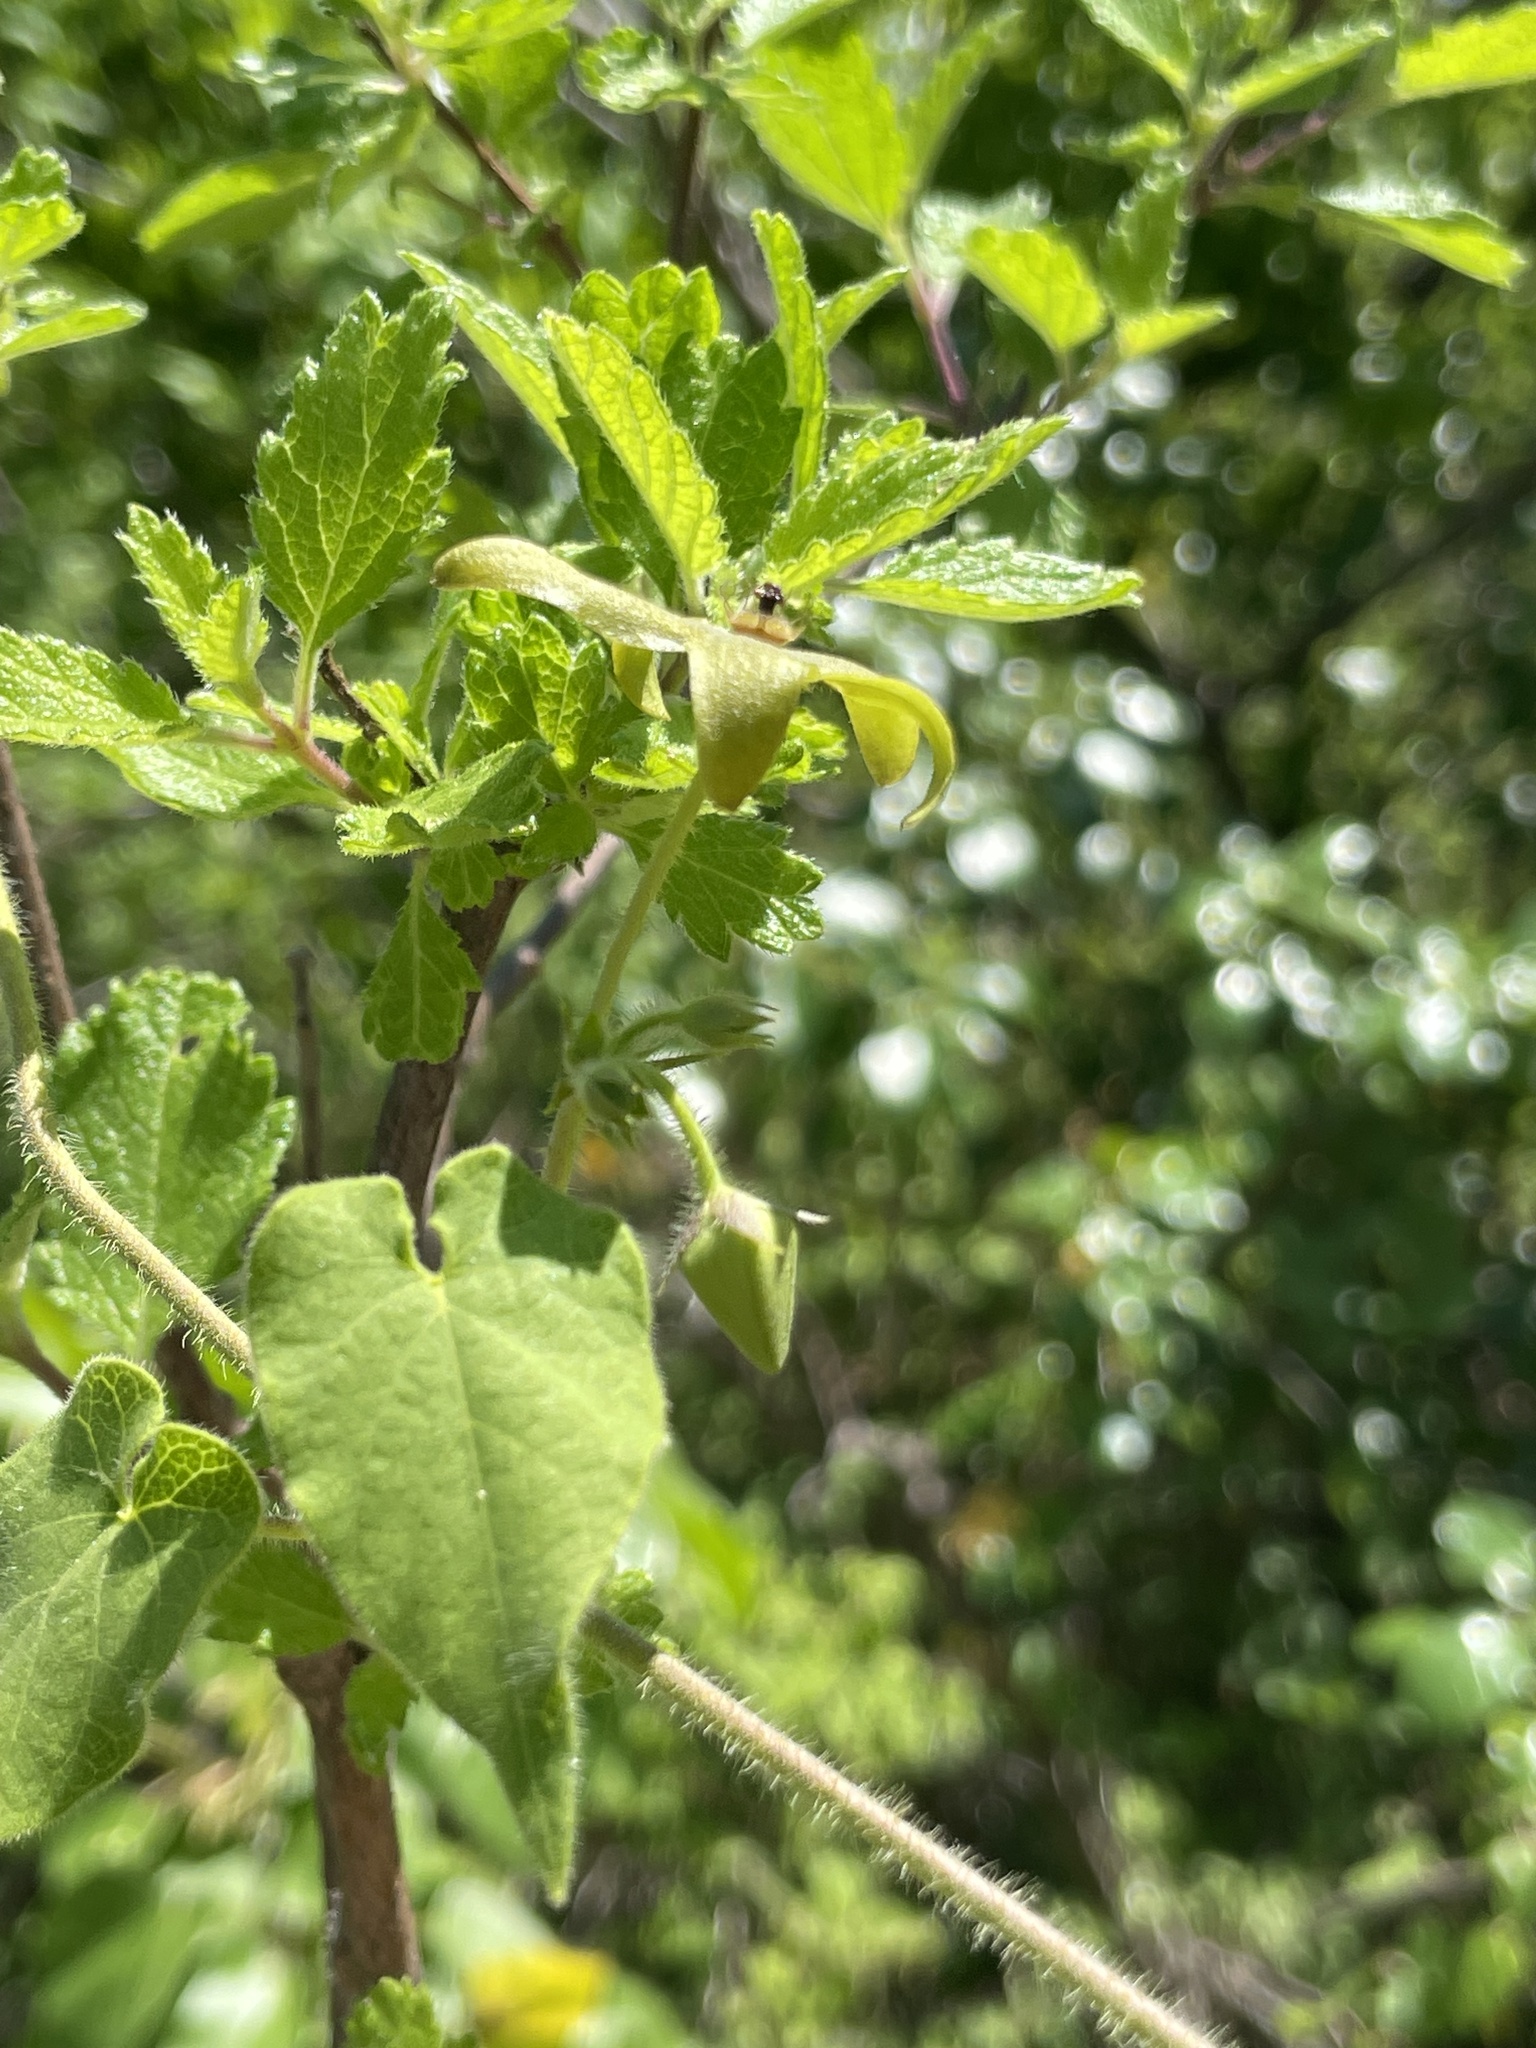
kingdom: Plantae
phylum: Tracheophyta
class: Magnoliopsida
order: Gentianales
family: Apocynaceae
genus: Matelea
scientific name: Matelea umbellata
